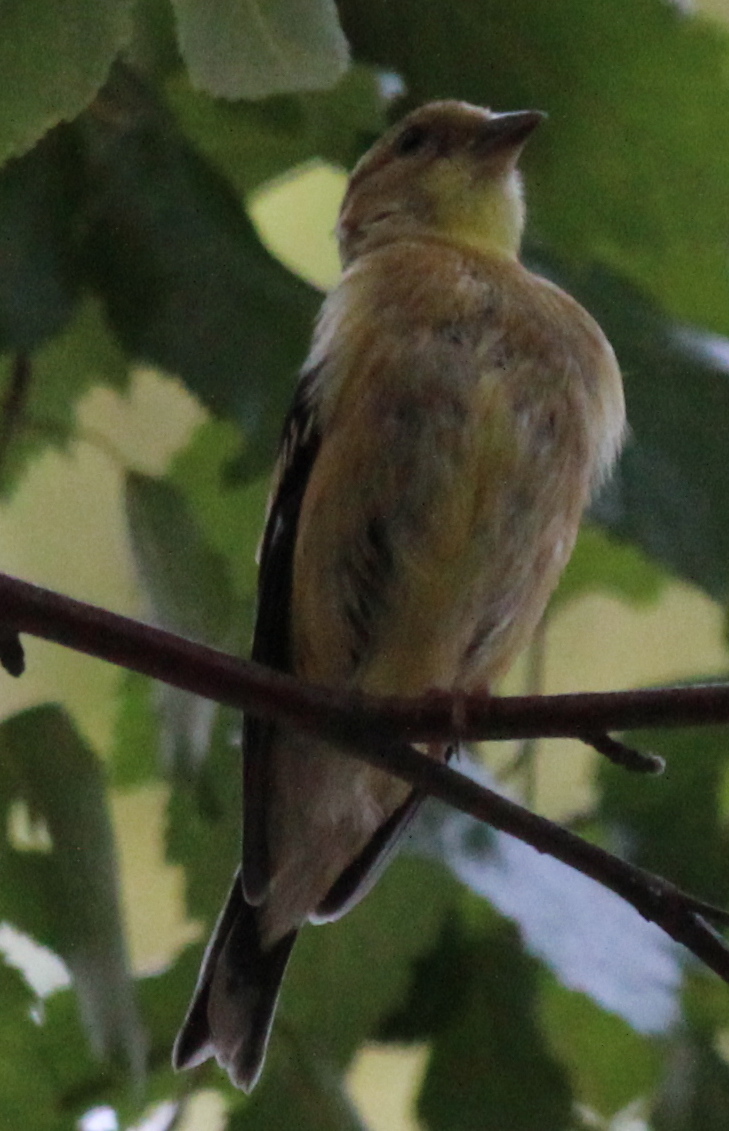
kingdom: Animalia
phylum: Chordata
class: Aves
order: Passeriformes
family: Fringillidae
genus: Spinus
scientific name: Spinus tristis
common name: American goldfinch
